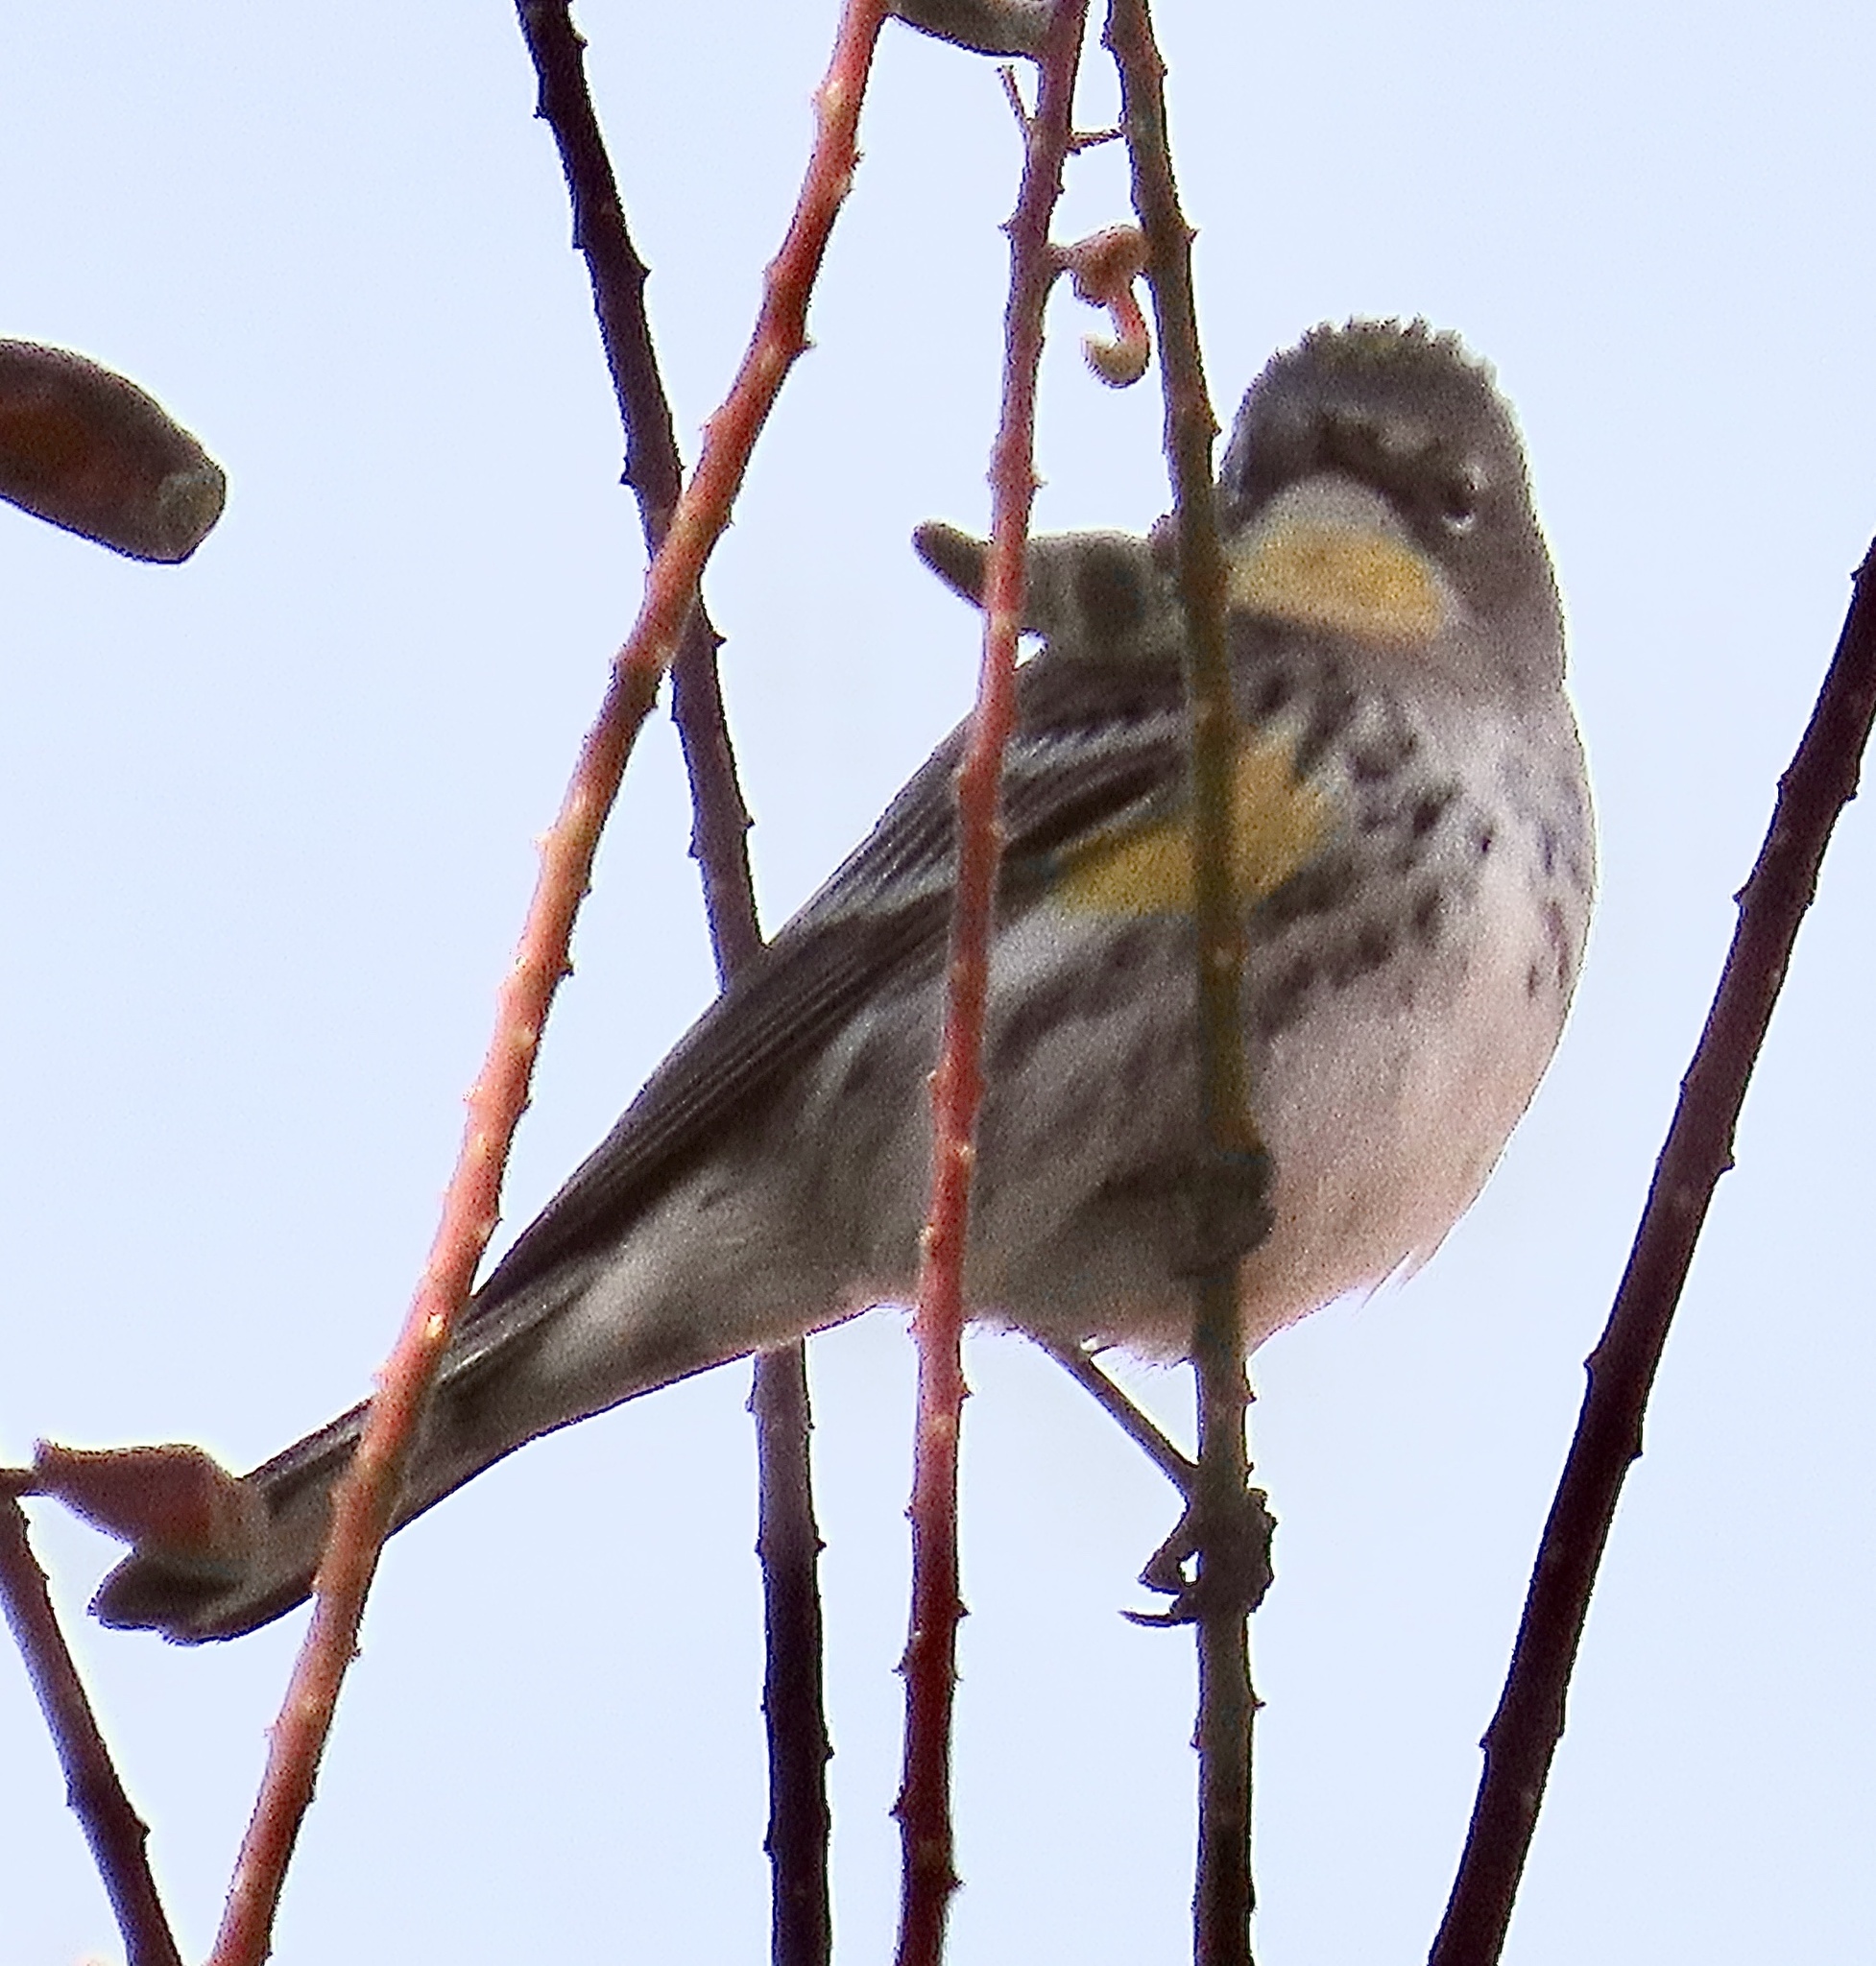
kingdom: Animalia
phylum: Chordata
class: Aves
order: Passeriformes
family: Parulidae
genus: Setophaga
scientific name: Setophaga auduboni
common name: Audubon's warbler
